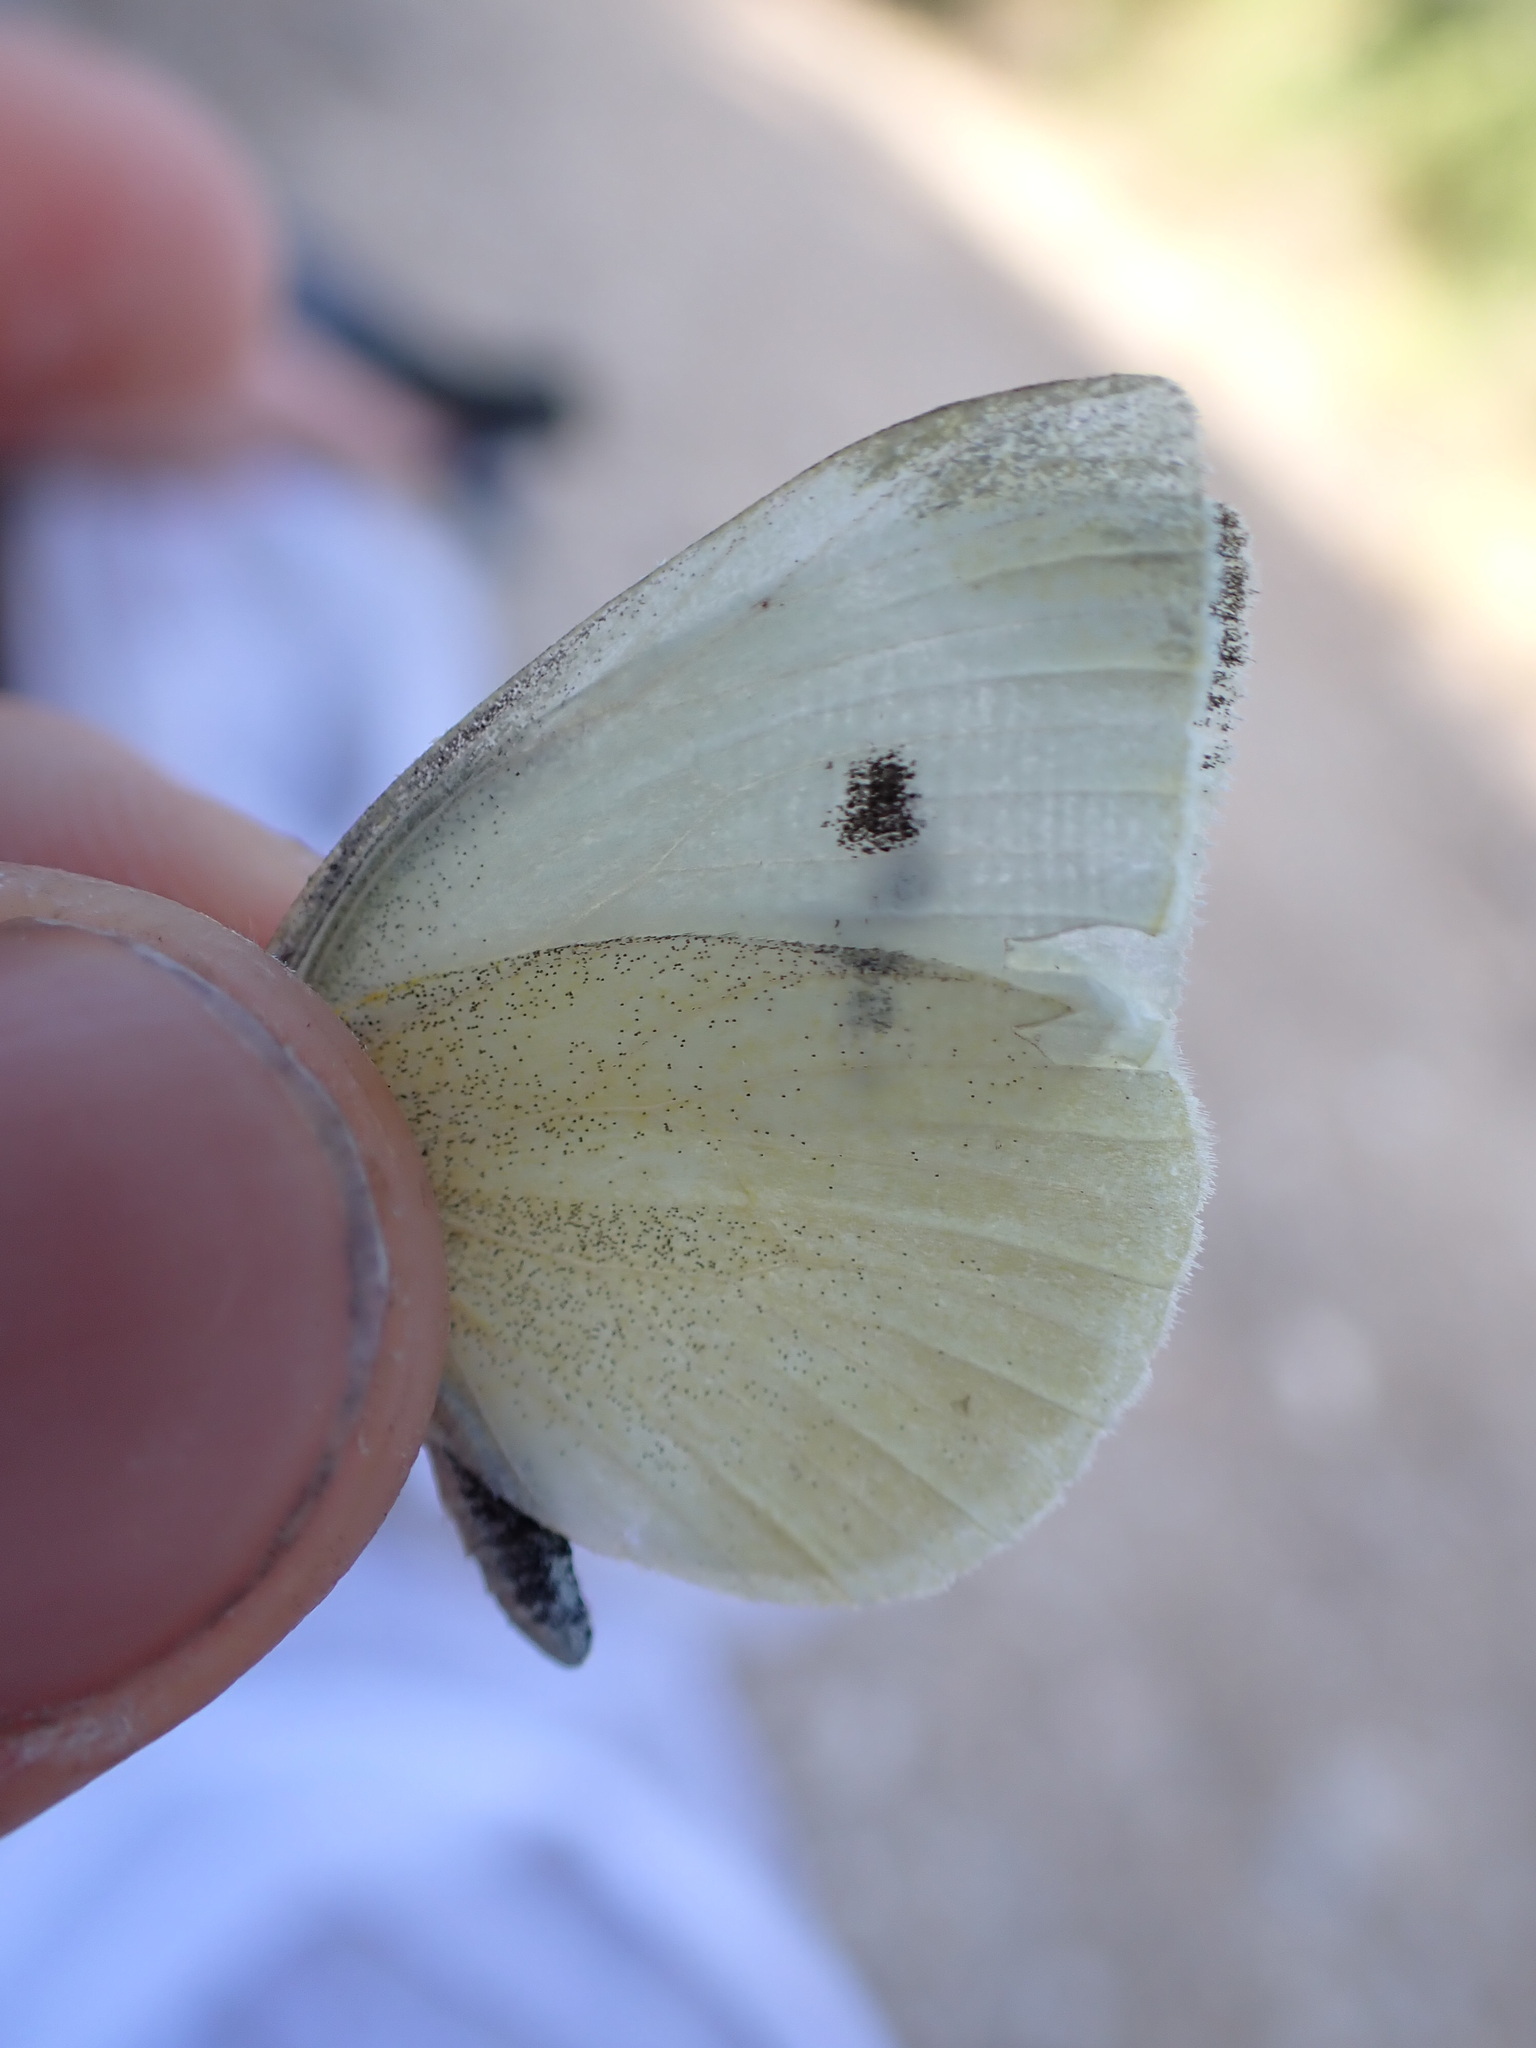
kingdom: Animalia
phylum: Arthropoda
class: Insecta
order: Lepidoptera
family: Pieridae
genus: Pieris
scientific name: Pieris rapae
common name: Small white
